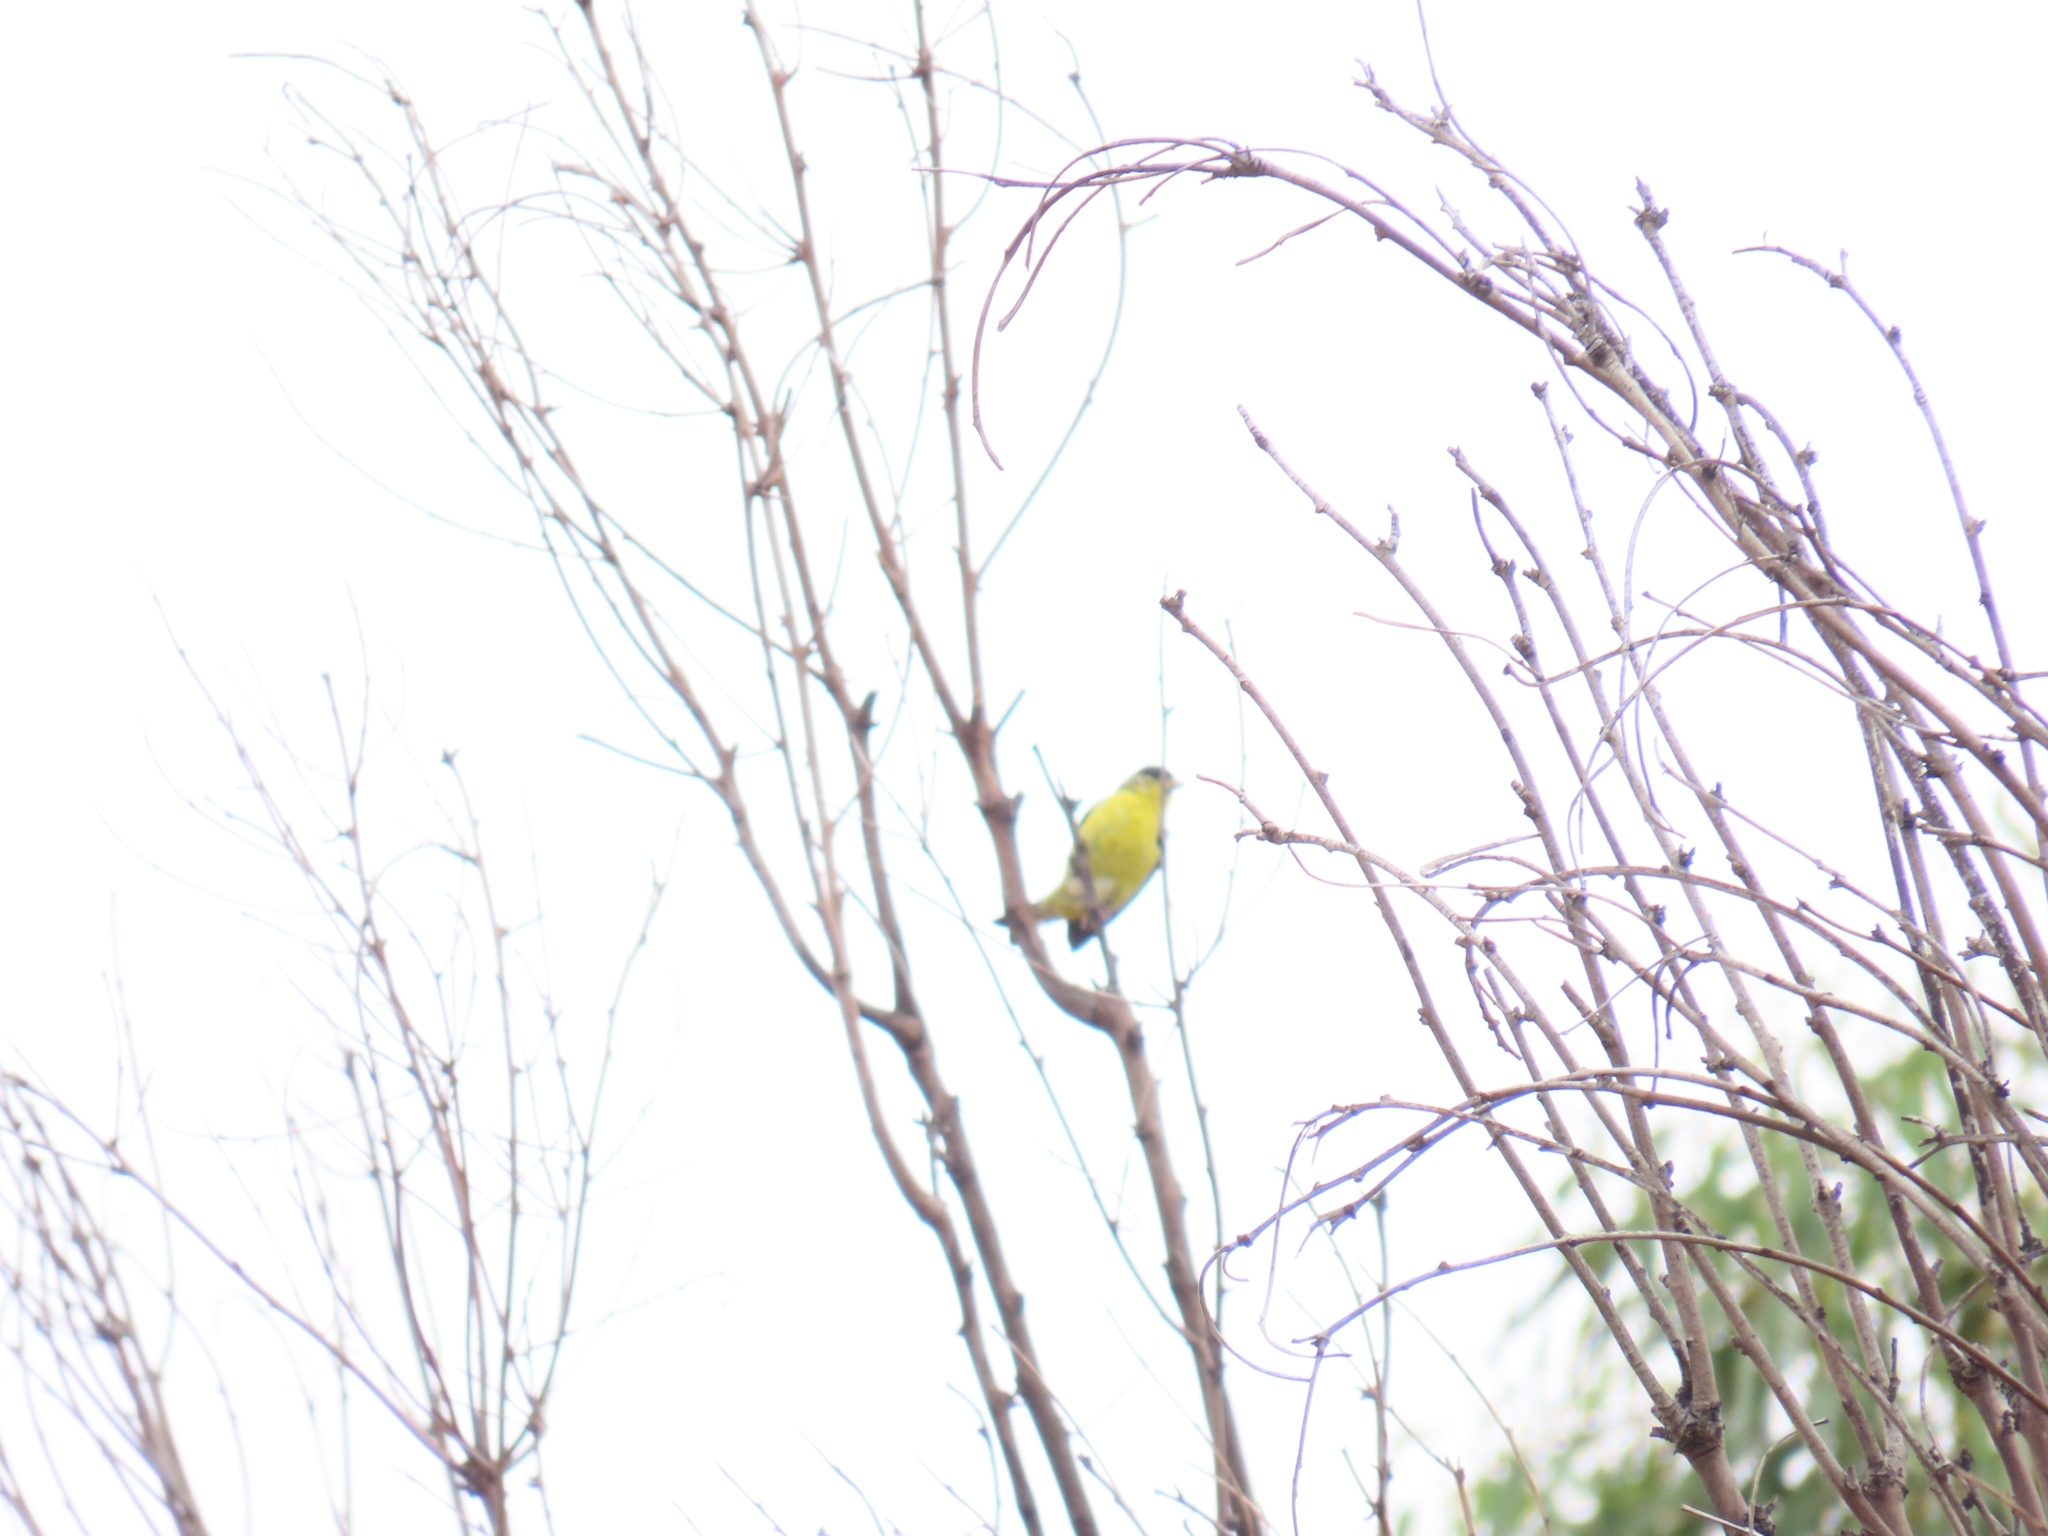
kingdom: Animalia
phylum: Chordata
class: Aves
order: Passeriformes
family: Fringillidae
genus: Spinus
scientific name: Spinus psaltria
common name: Lesser goldfinch
